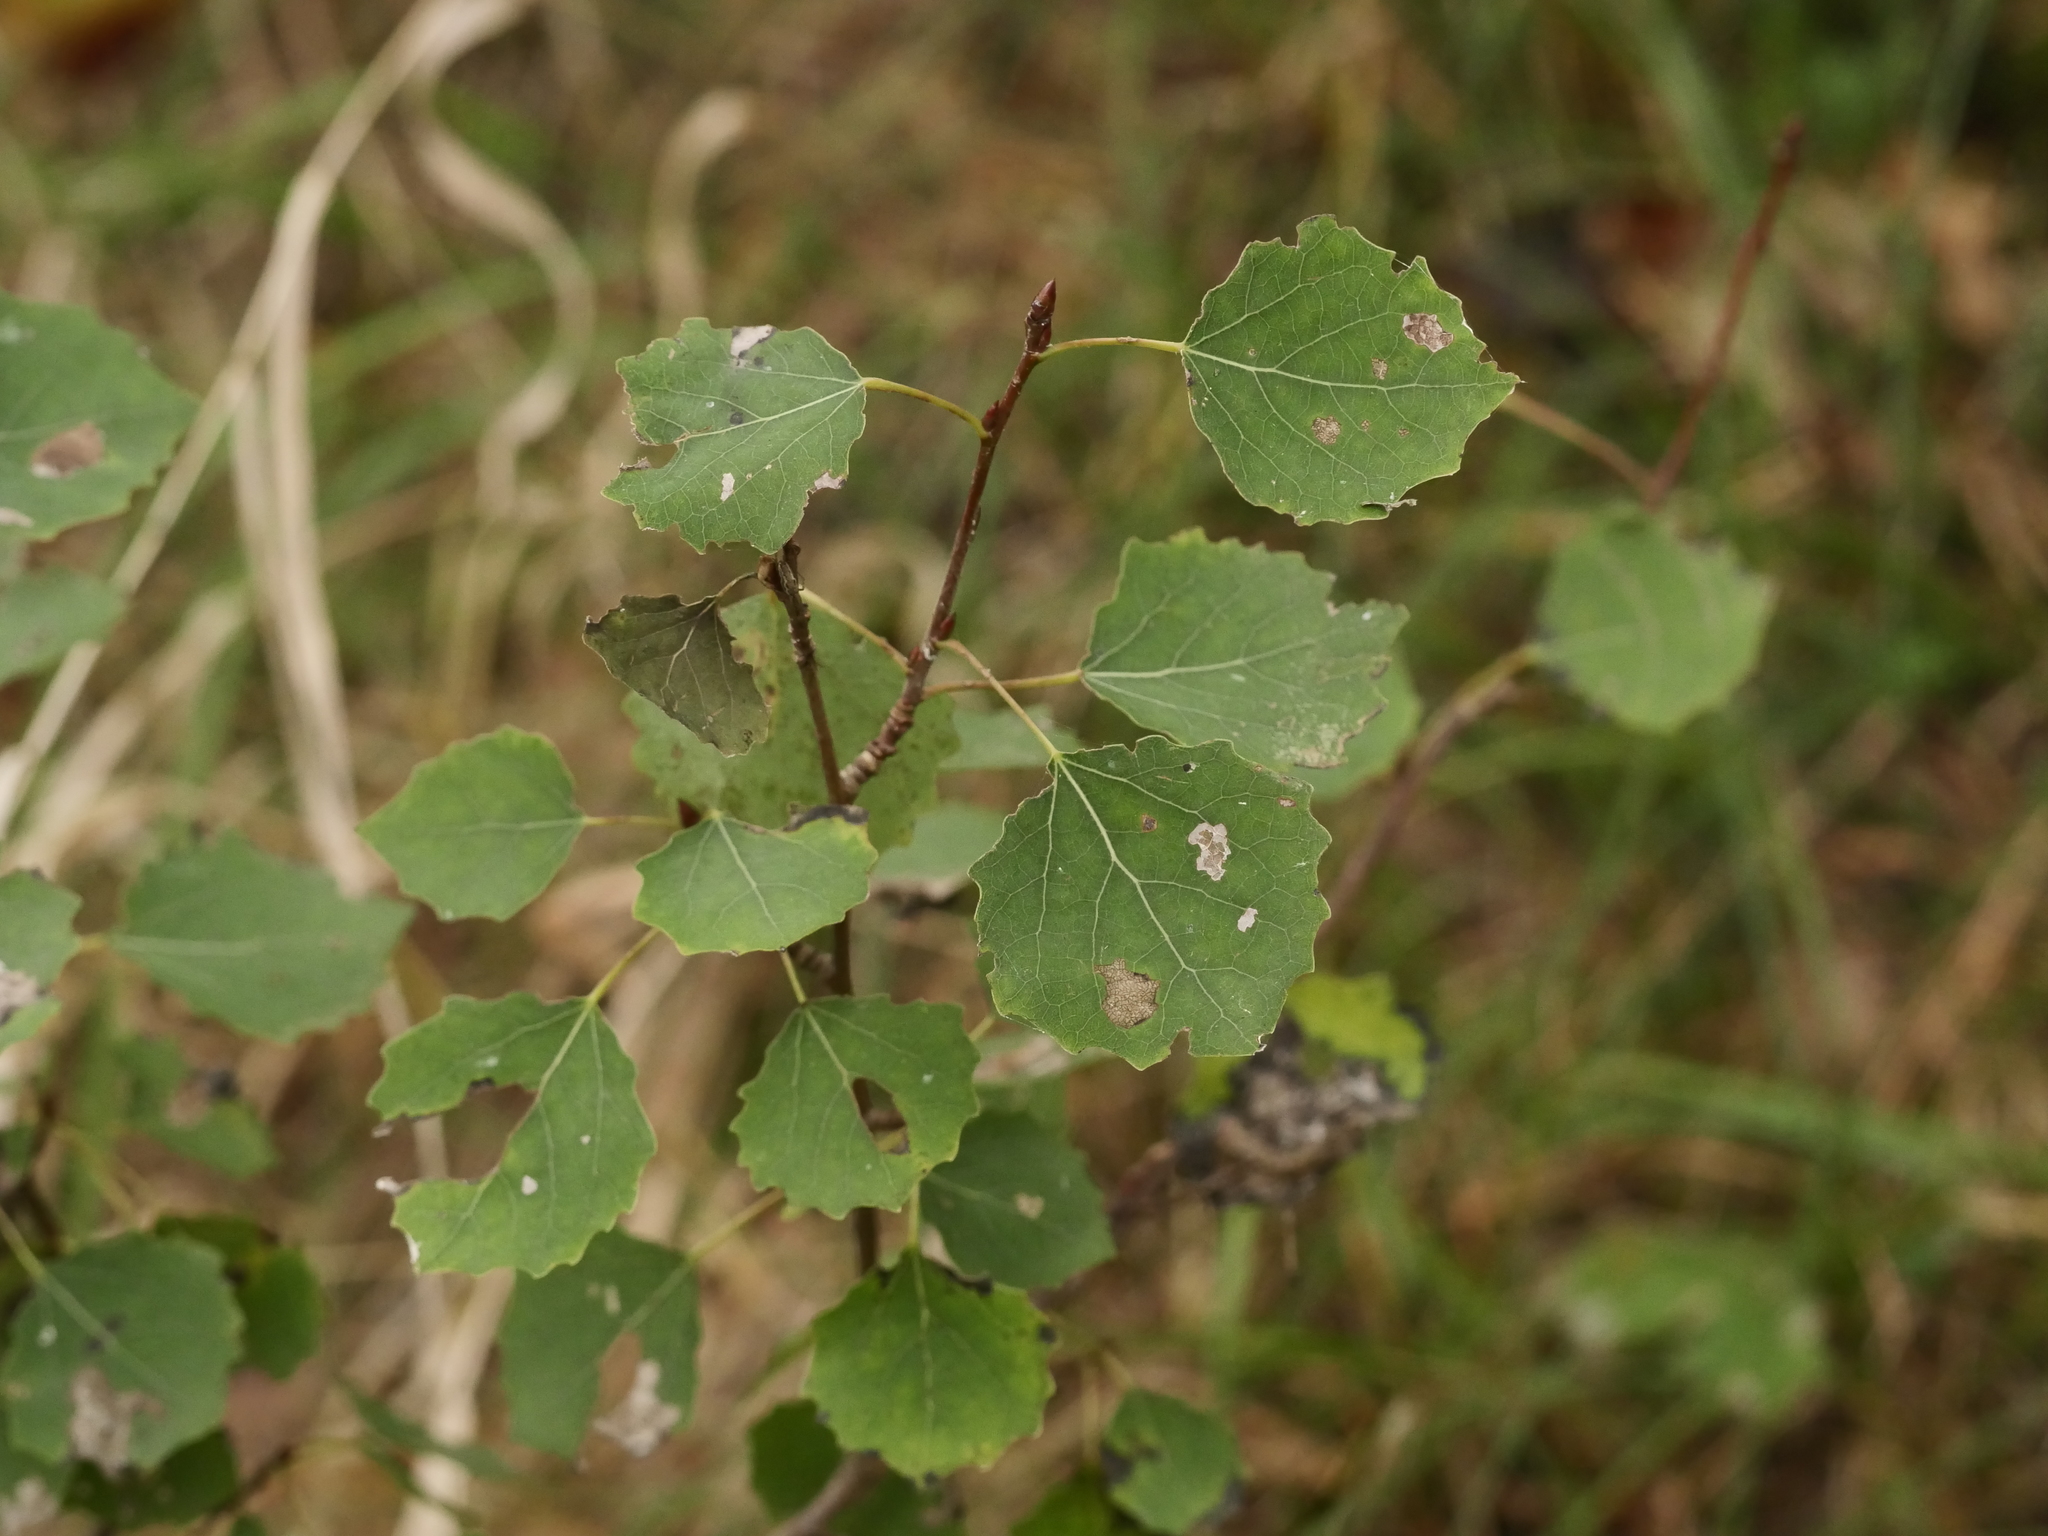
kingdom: Plantae
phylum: Tracheophyta
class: Magnoliopsida
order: Malpighiales
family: Salicaceae
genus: Populus
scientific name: Populus tremula
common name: European aspen
